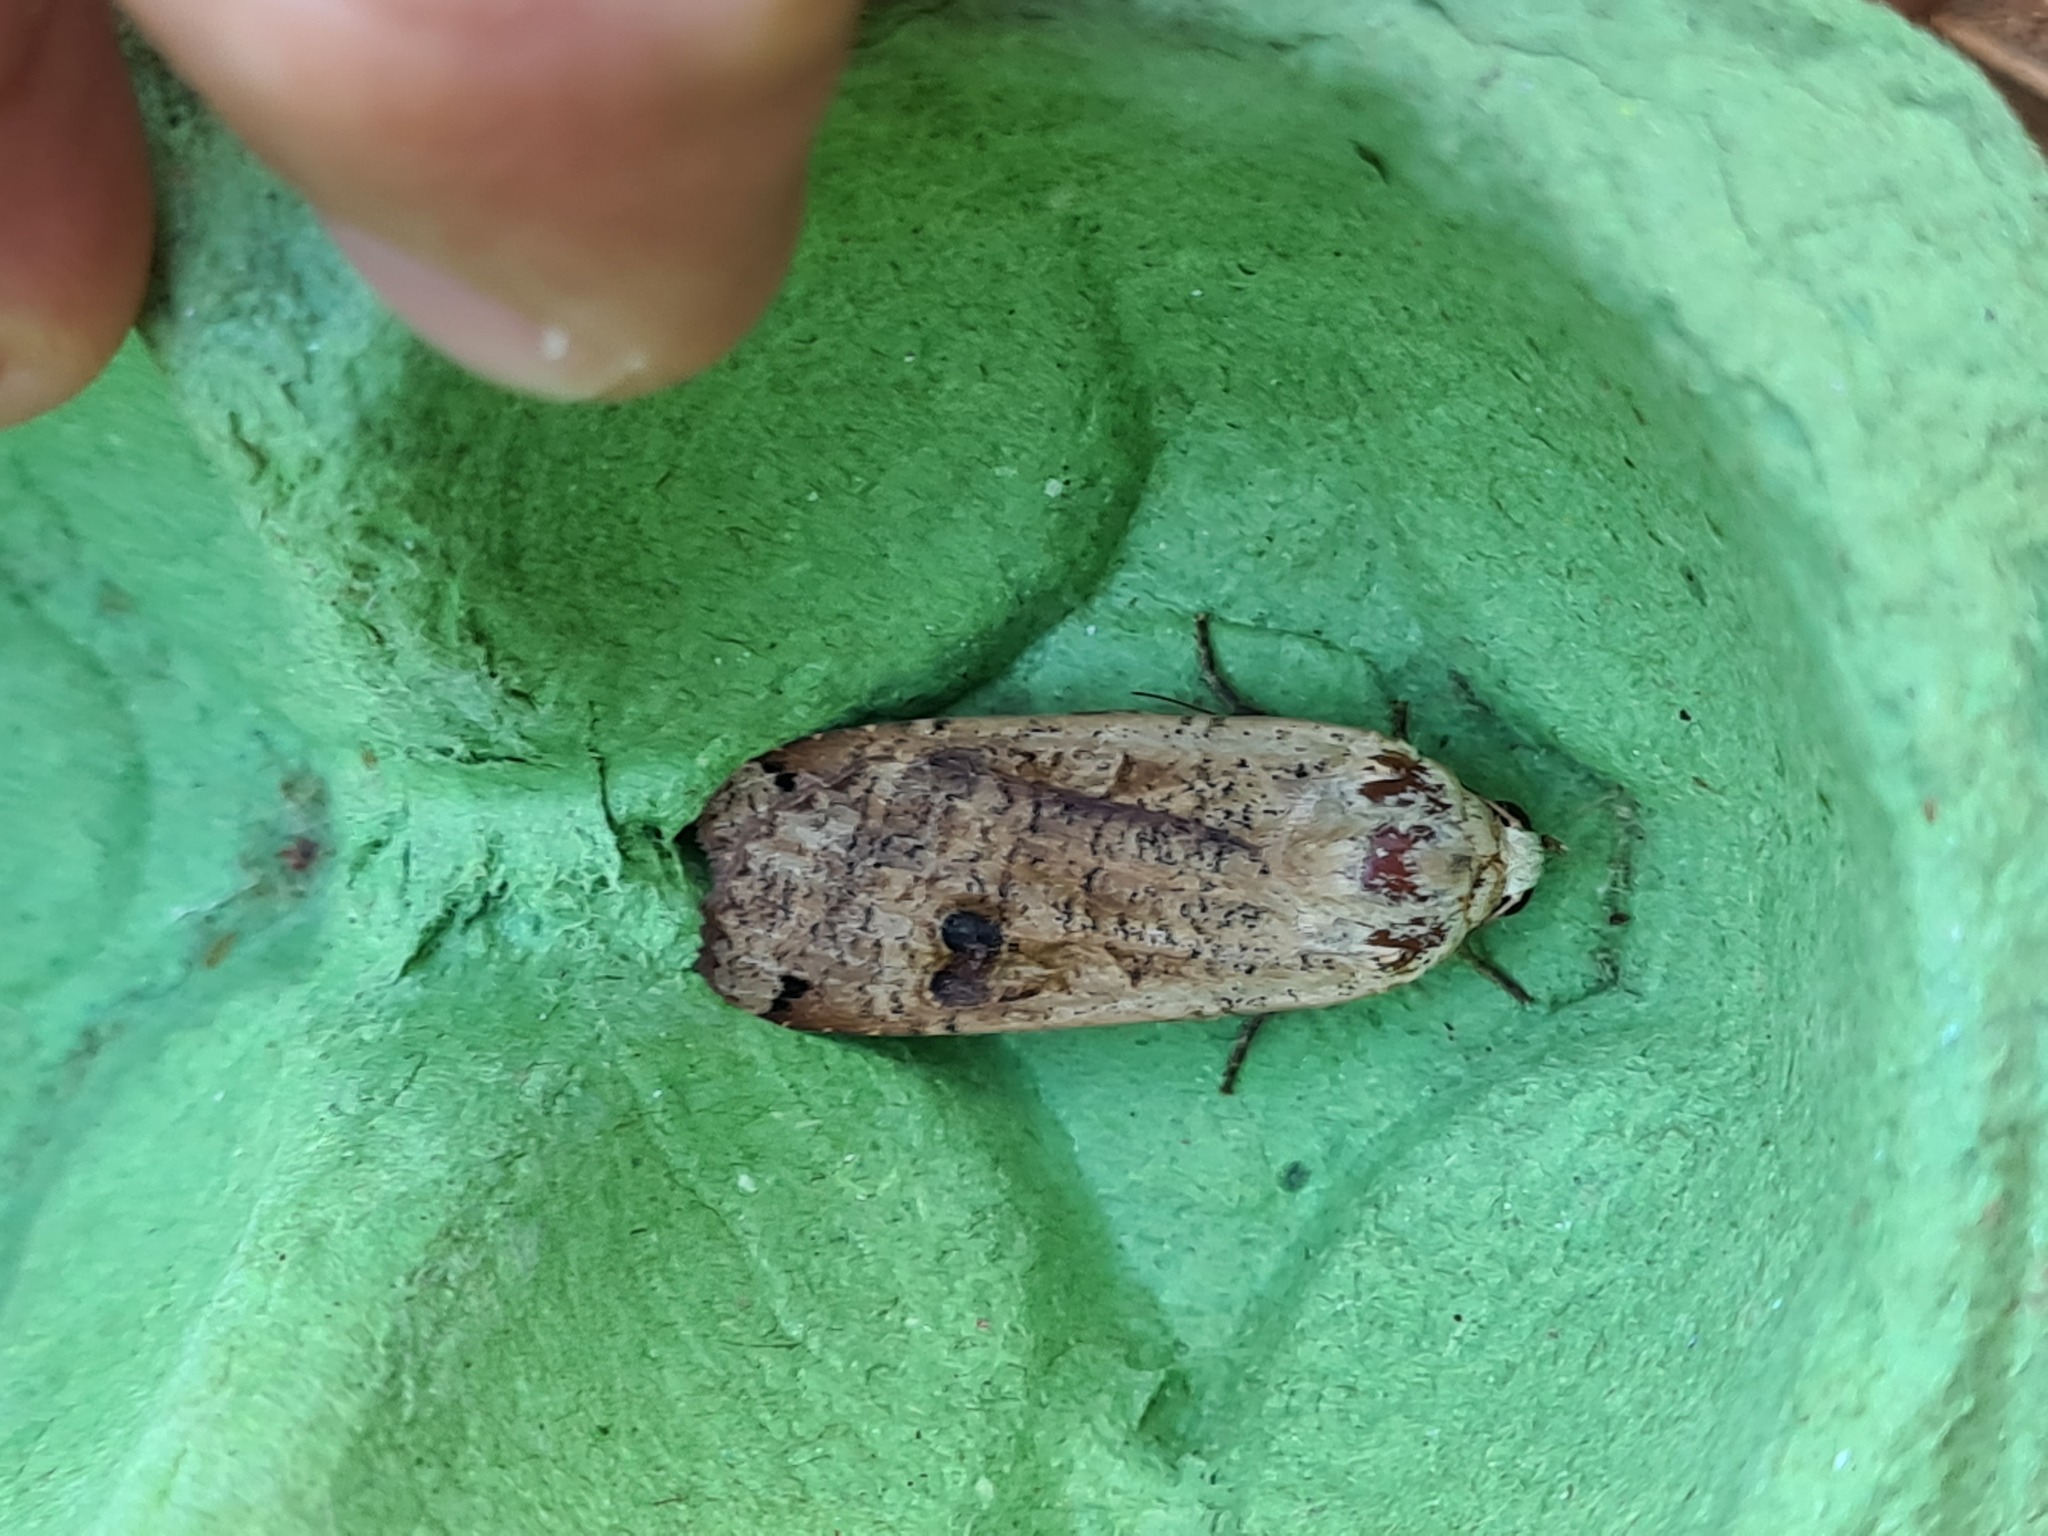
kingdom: Animalia
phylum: Arthropoda
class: Insecta
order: Lepidoptera
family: Noctuidae
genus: Noctua
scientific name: Noctua pronuba
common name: Large yellow underwing
